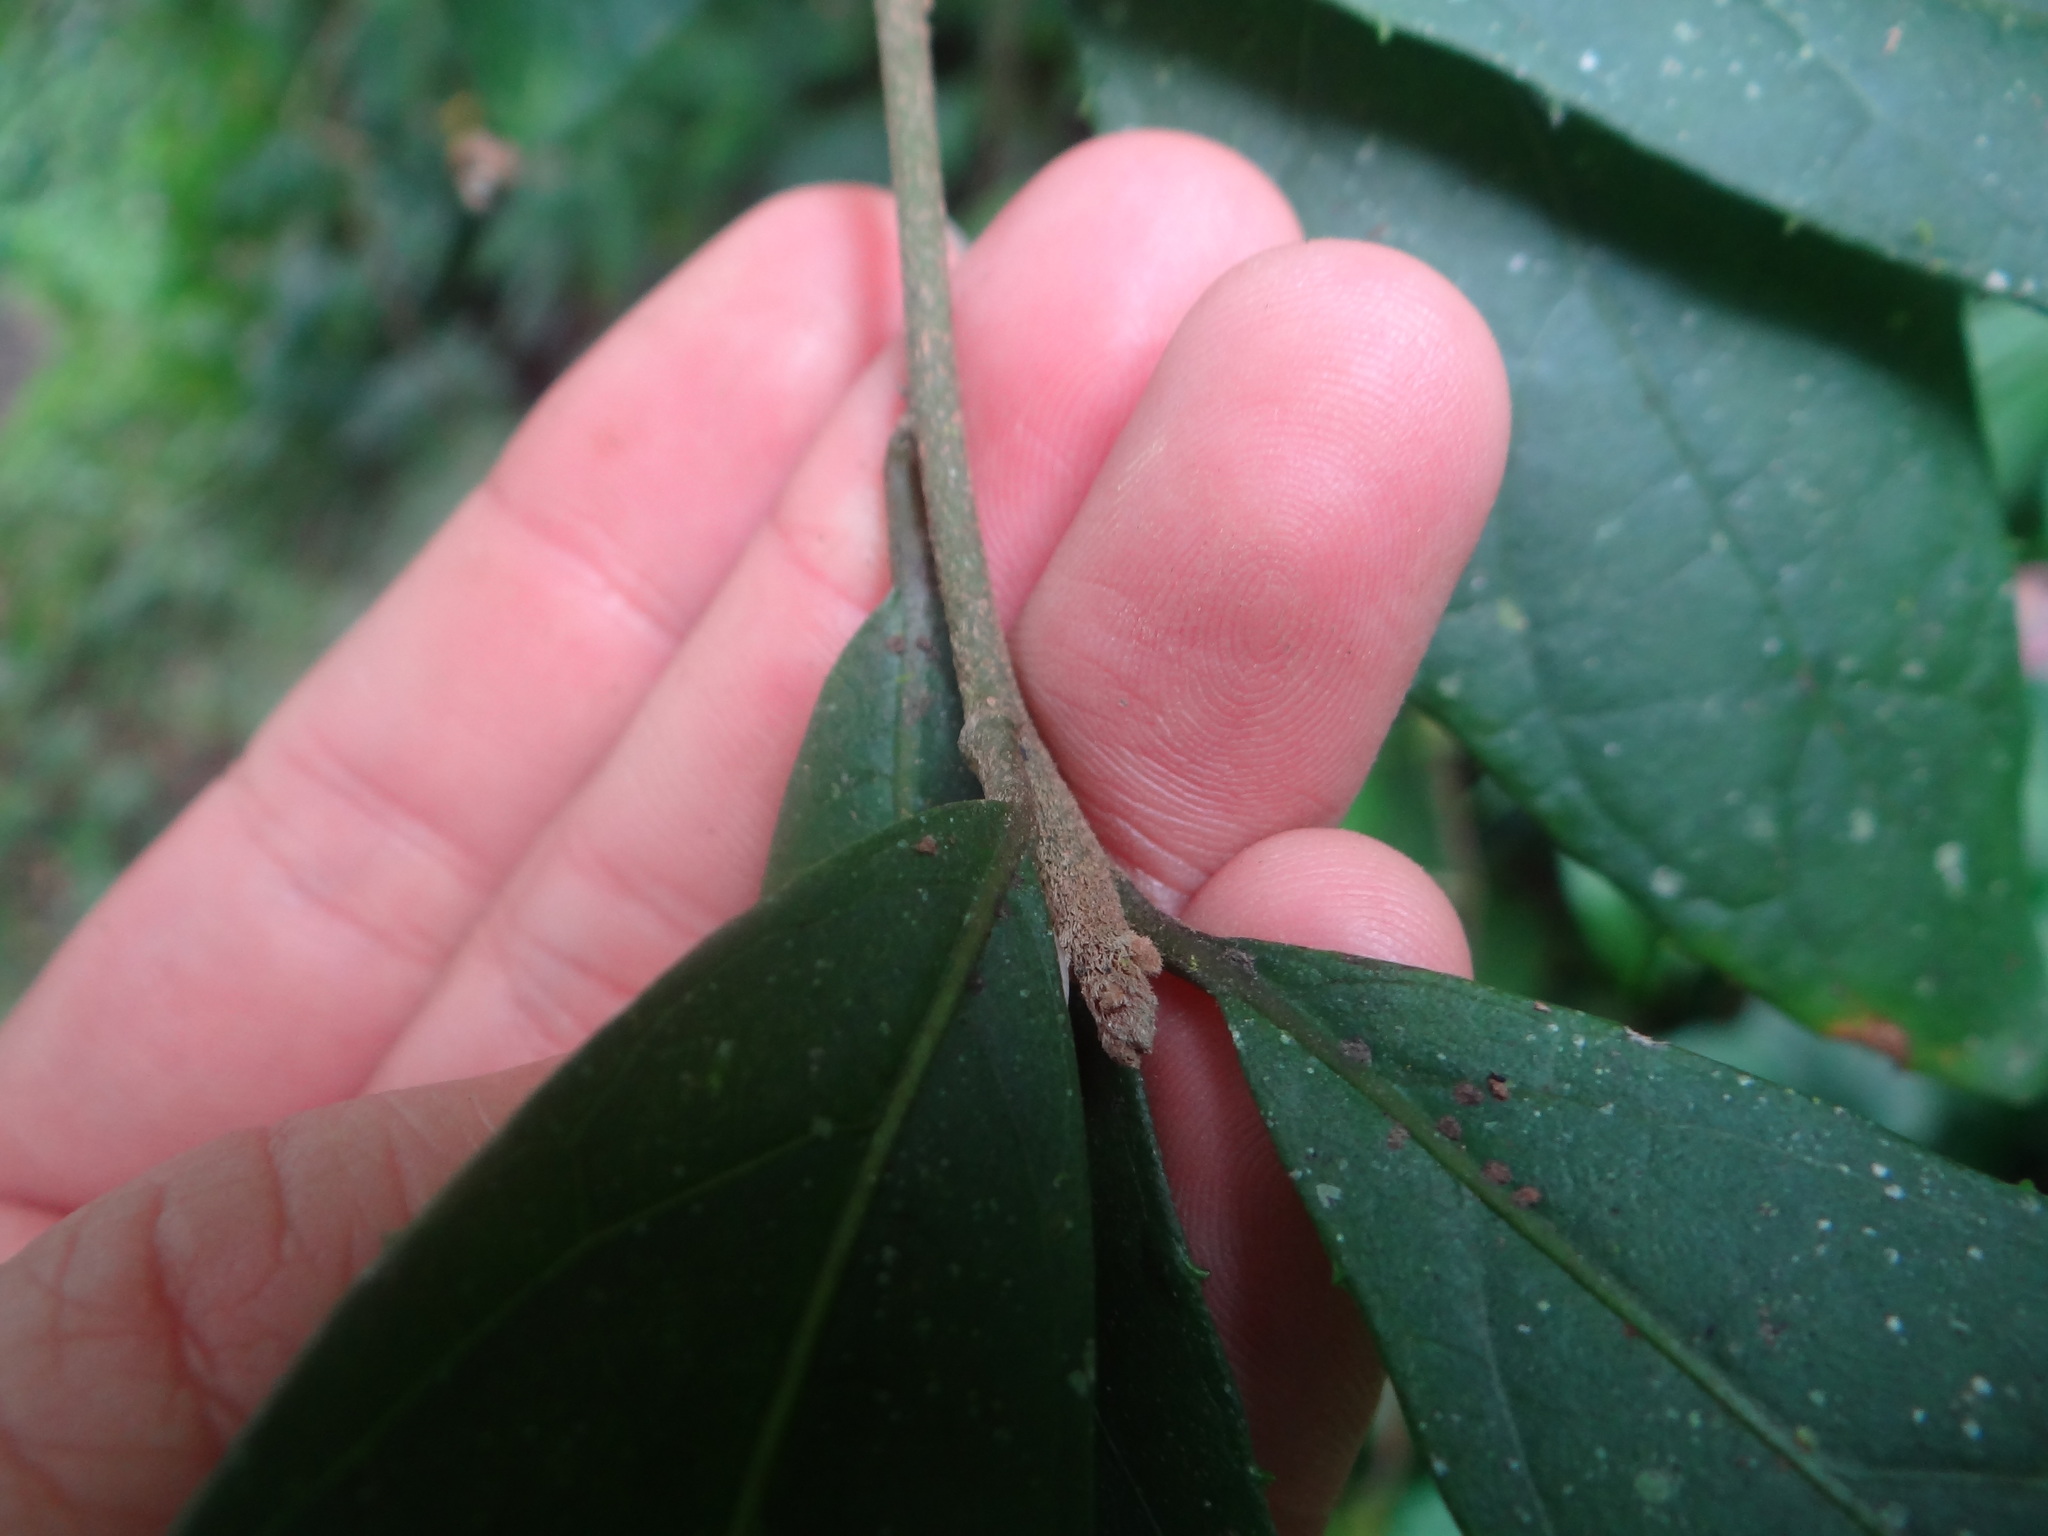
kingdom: Plantae
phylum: Tracheophyta
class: Magnoliopsida
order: Asterales
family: Asteraceae
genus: Decaneuropsis
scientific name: Decaneuropsis gratiosa
